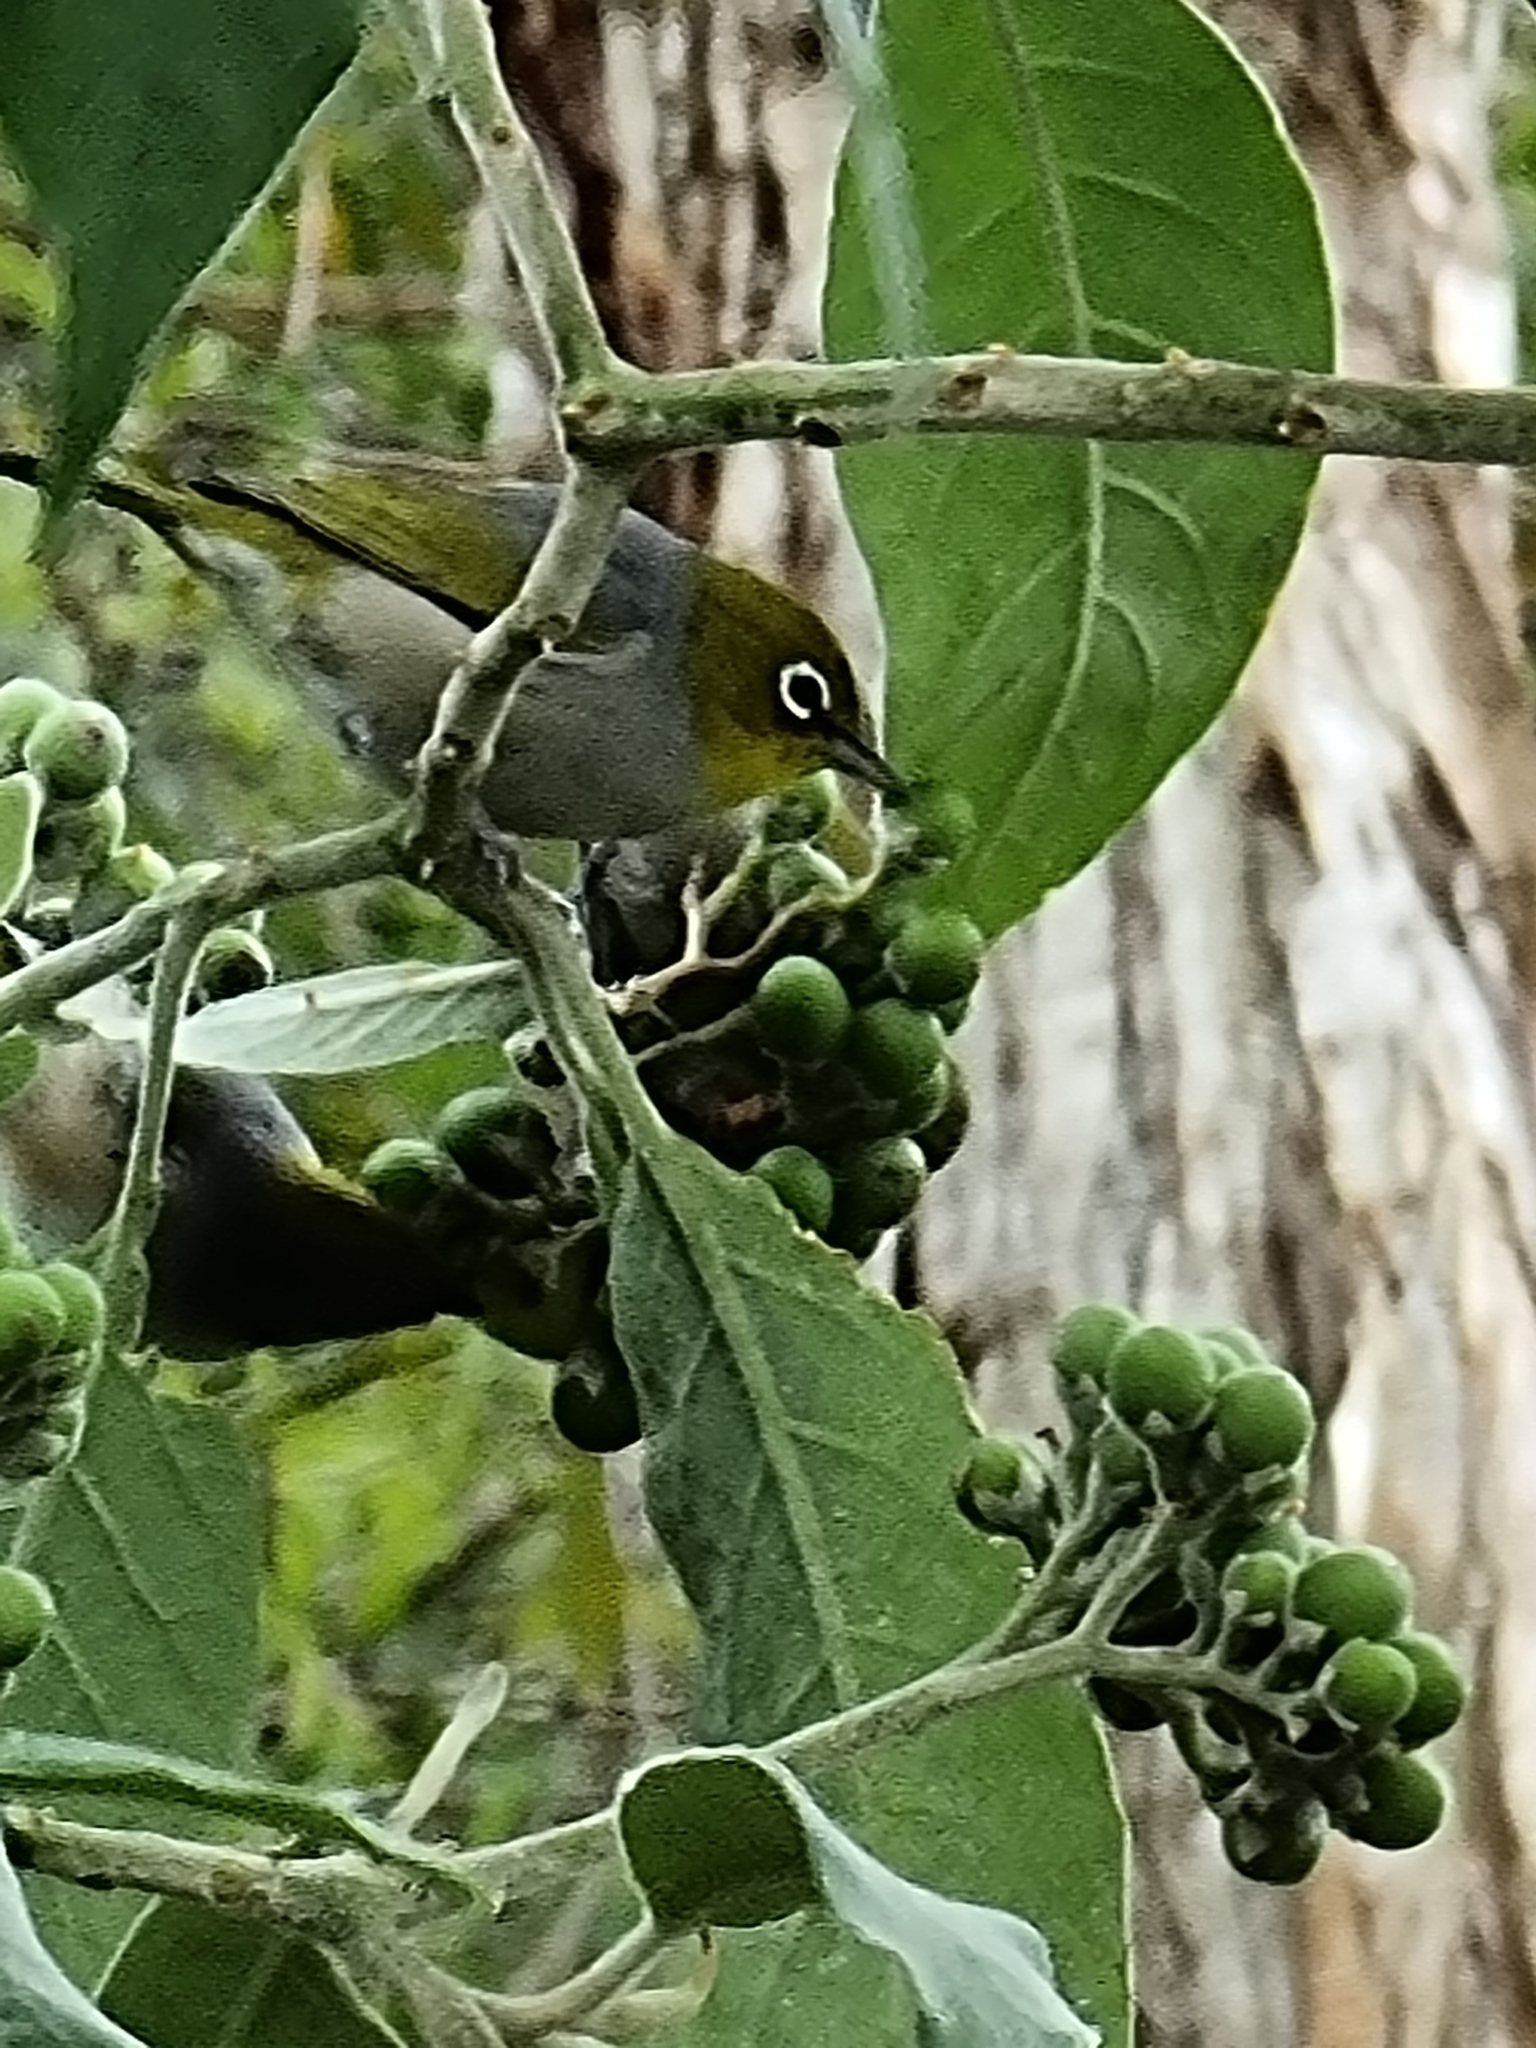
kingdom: Animalia
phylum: Chordata
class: Aves
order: Passeriformes
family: Zosteropidae
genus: Zosterops
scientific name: Zosterops lateralis
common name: Silvereye
